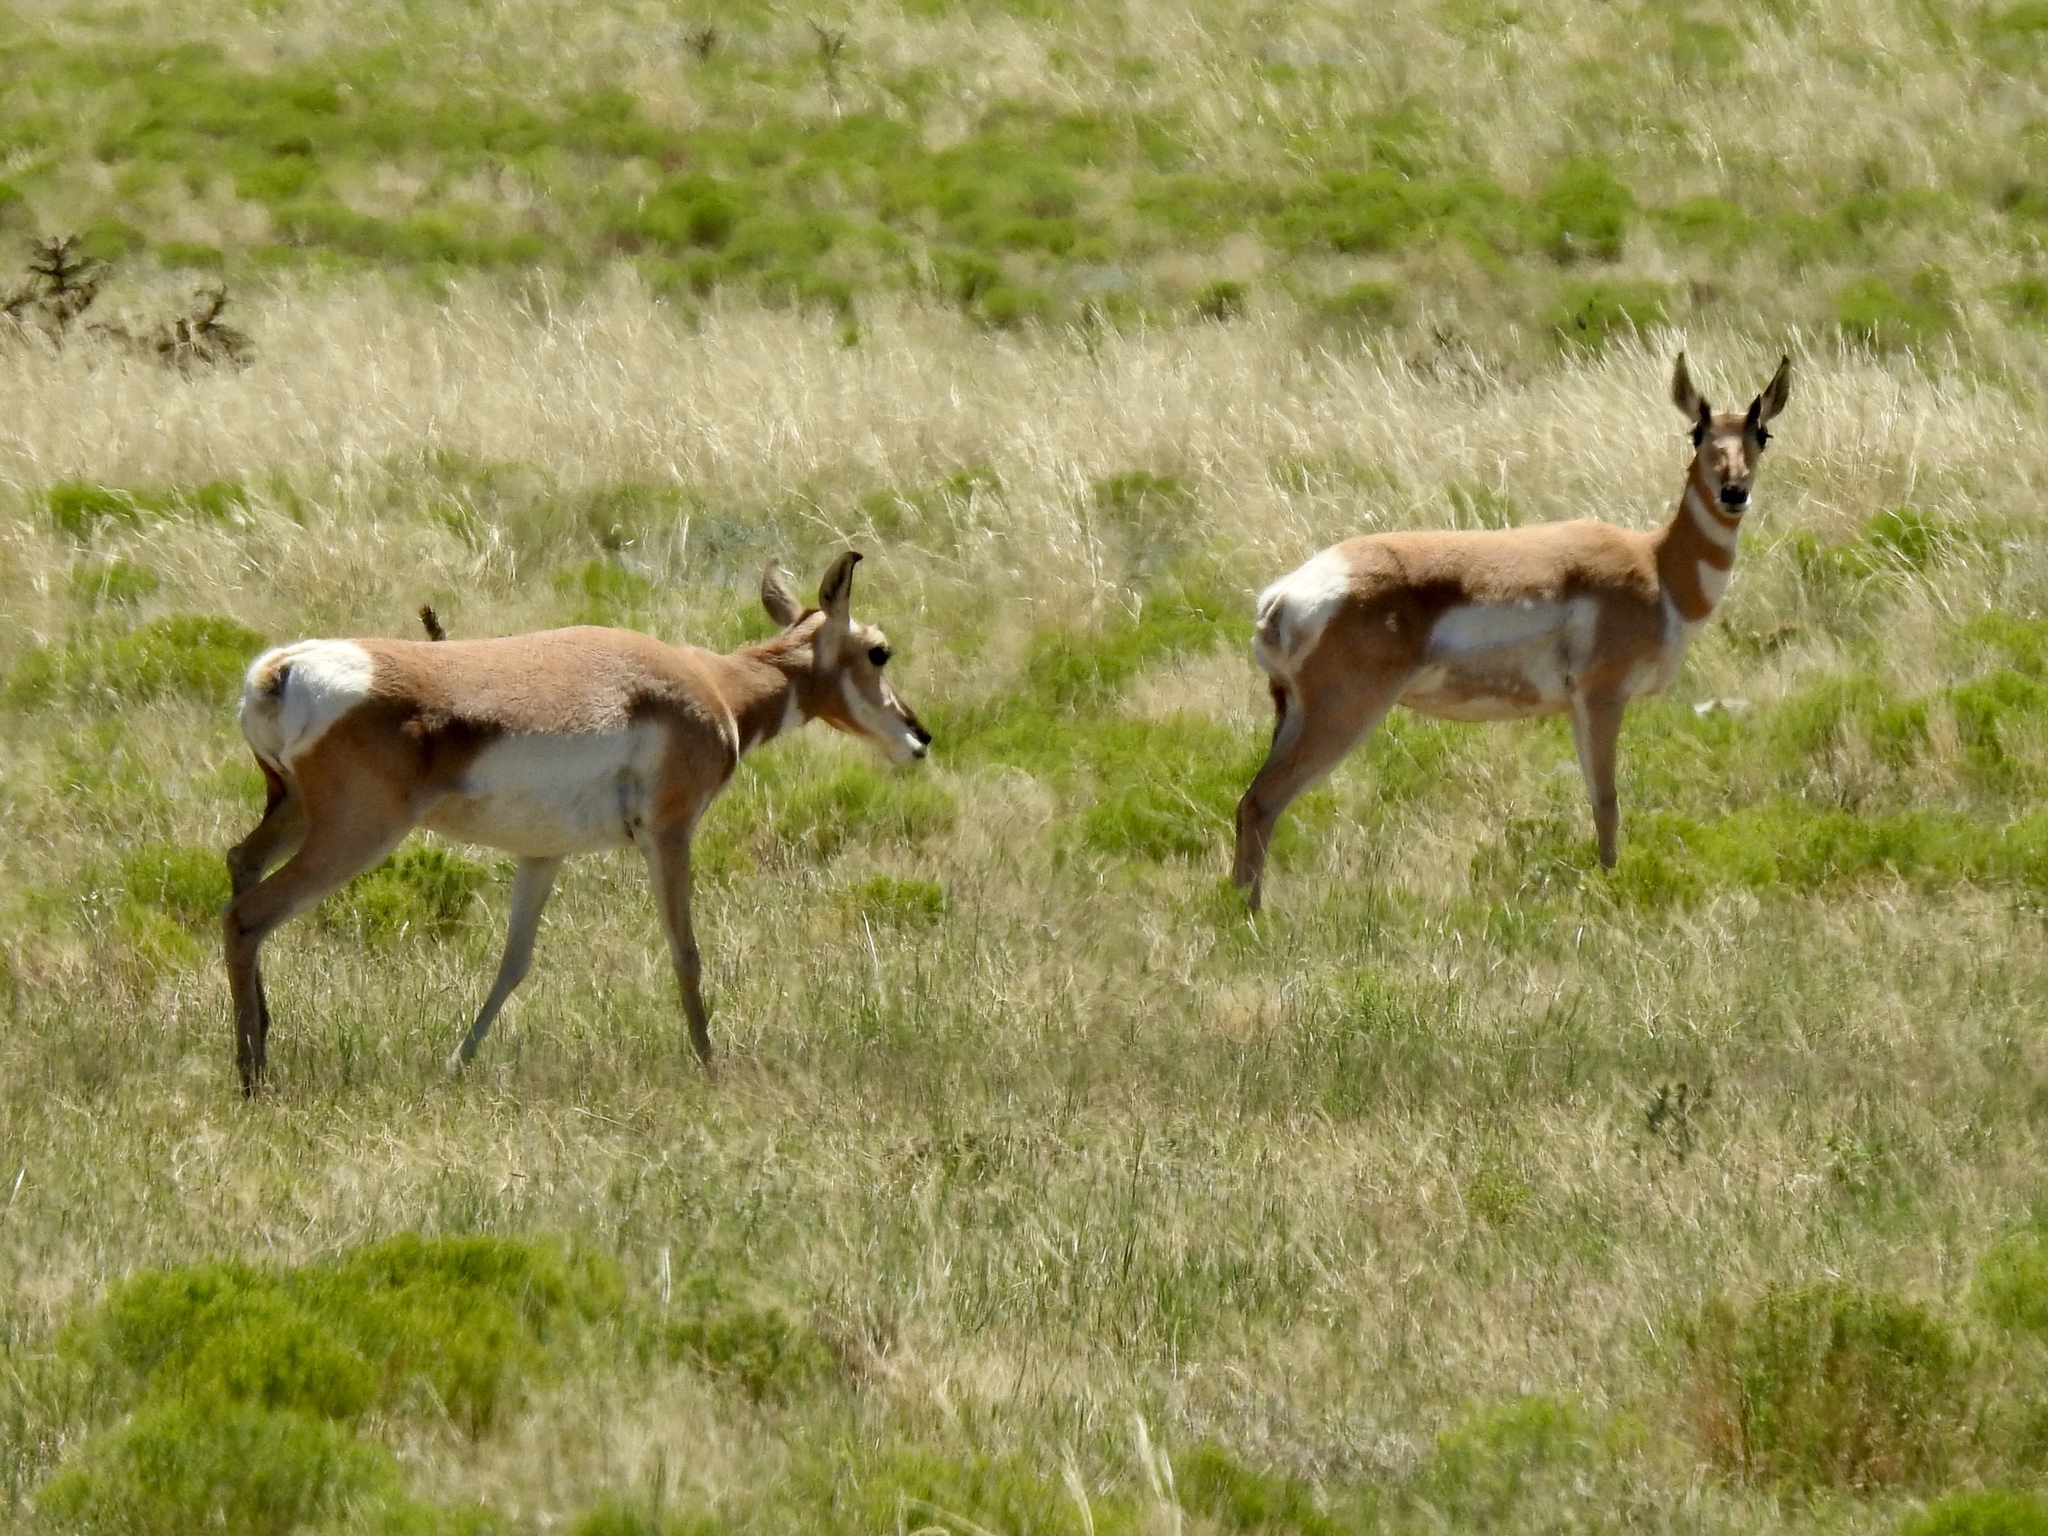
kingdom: Animalia
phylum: Chordata
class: Mammalia
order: Artiodactyla
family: Antilocapridae
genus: Antilocapra
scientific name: Antilocapra americana
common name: Pronghorn
